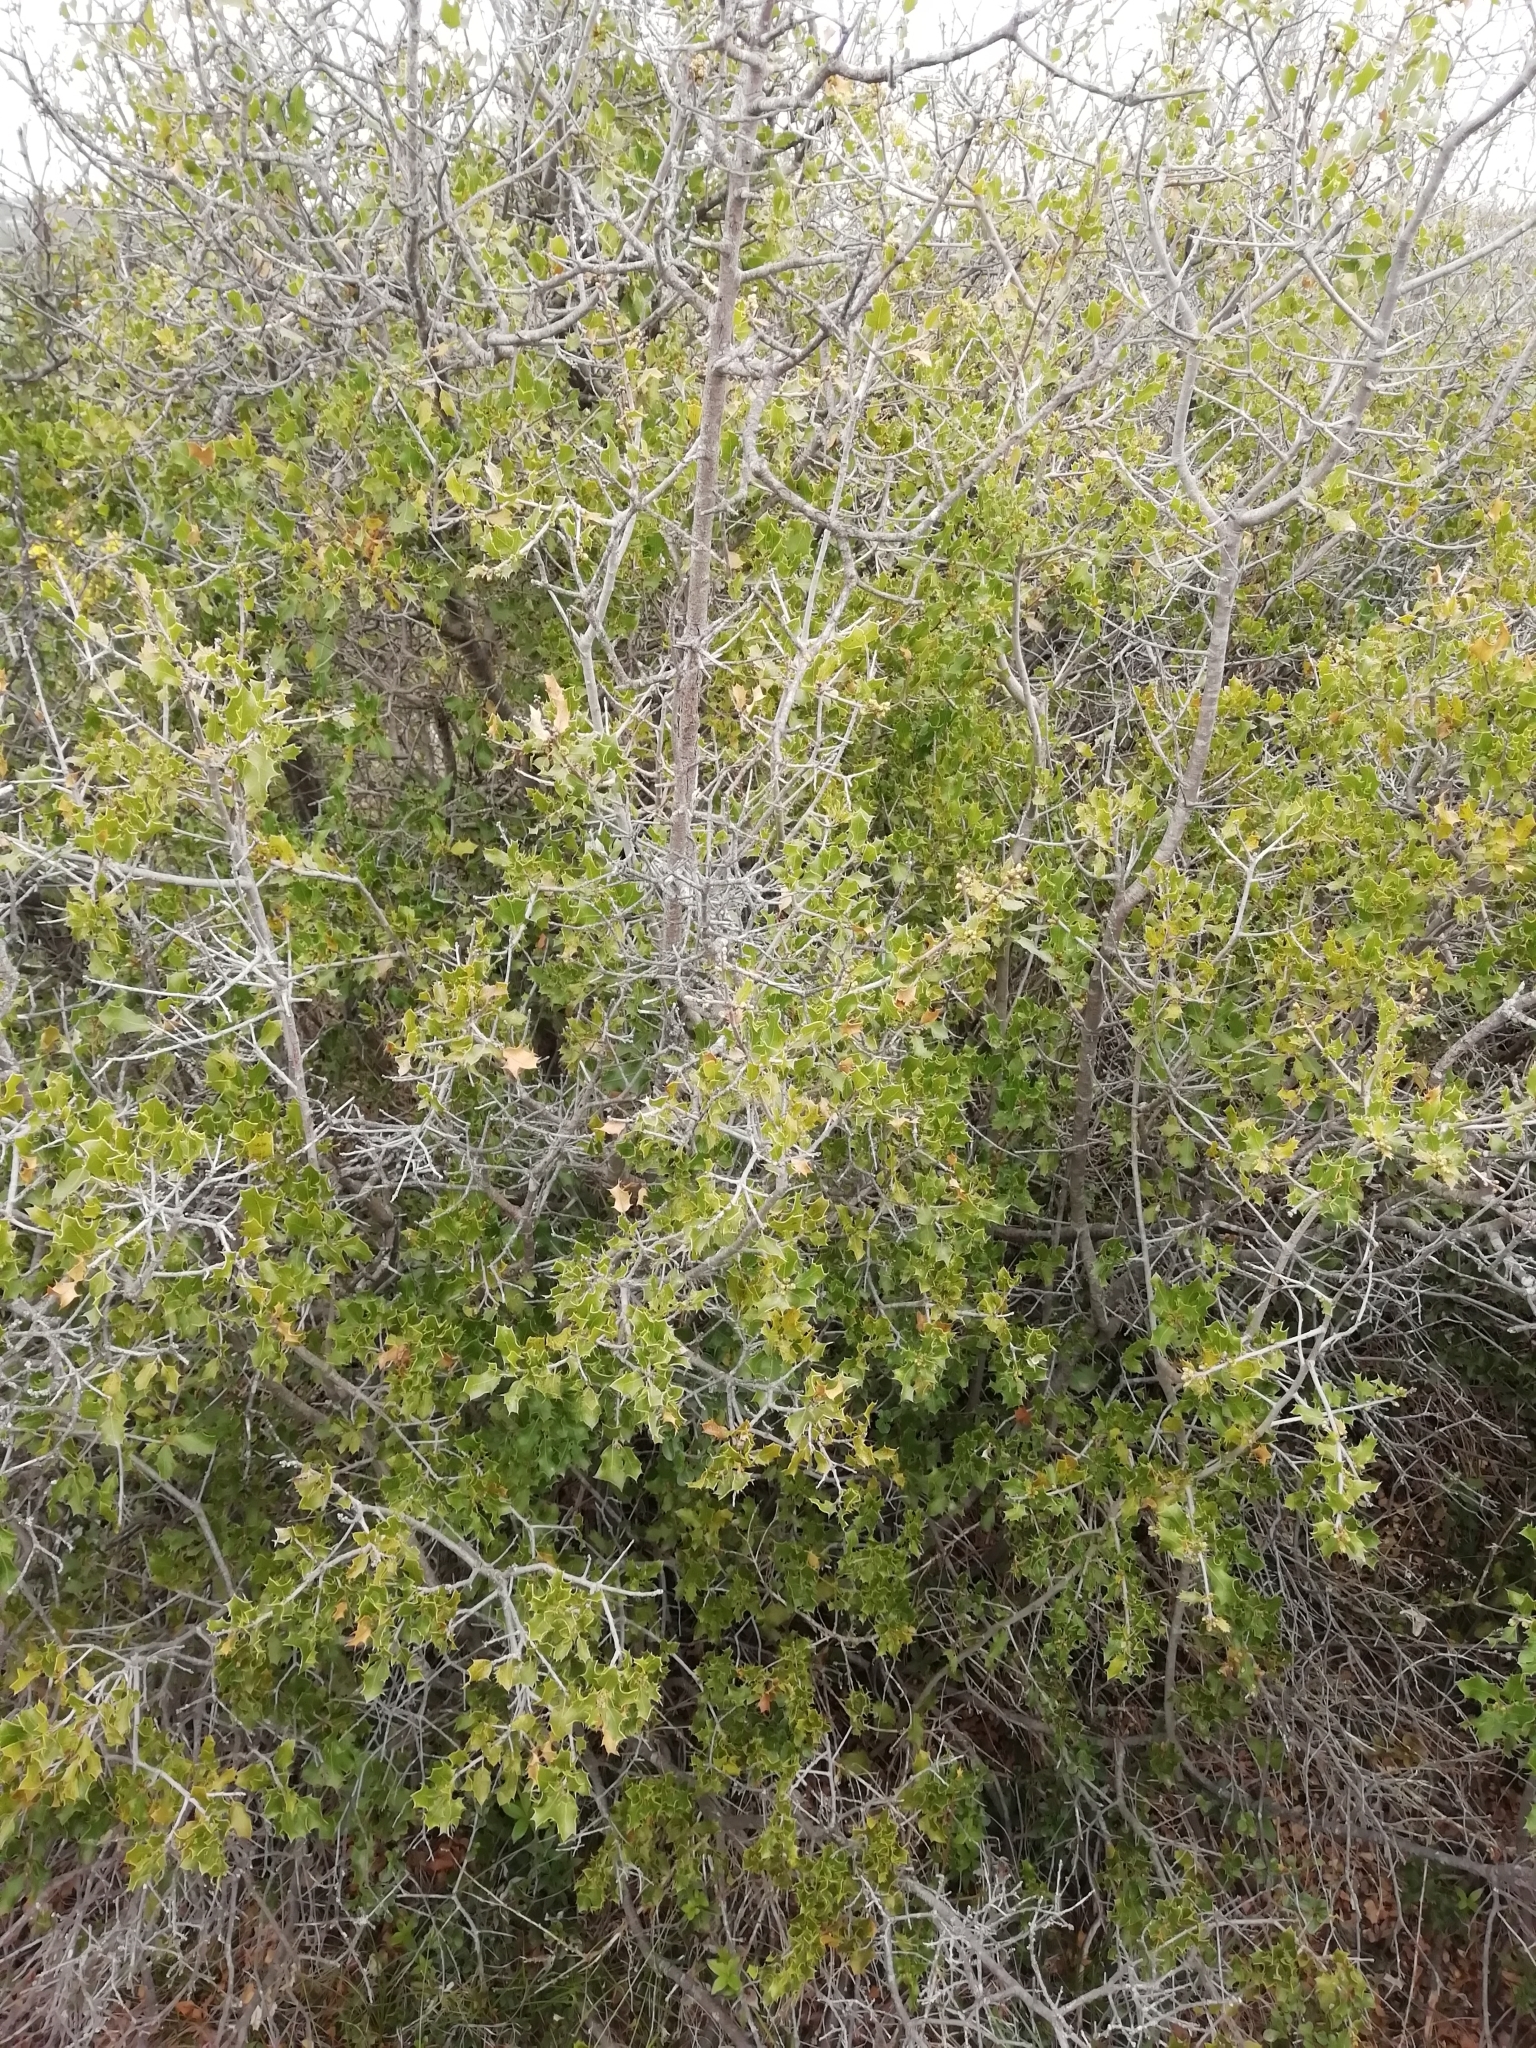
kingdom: Plantae
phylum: Tracheophyta
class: Magnoliopsida
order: Fagales
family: Fagaceae
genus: Quercus
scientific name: Quercus coccifera
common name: Kermes oak
